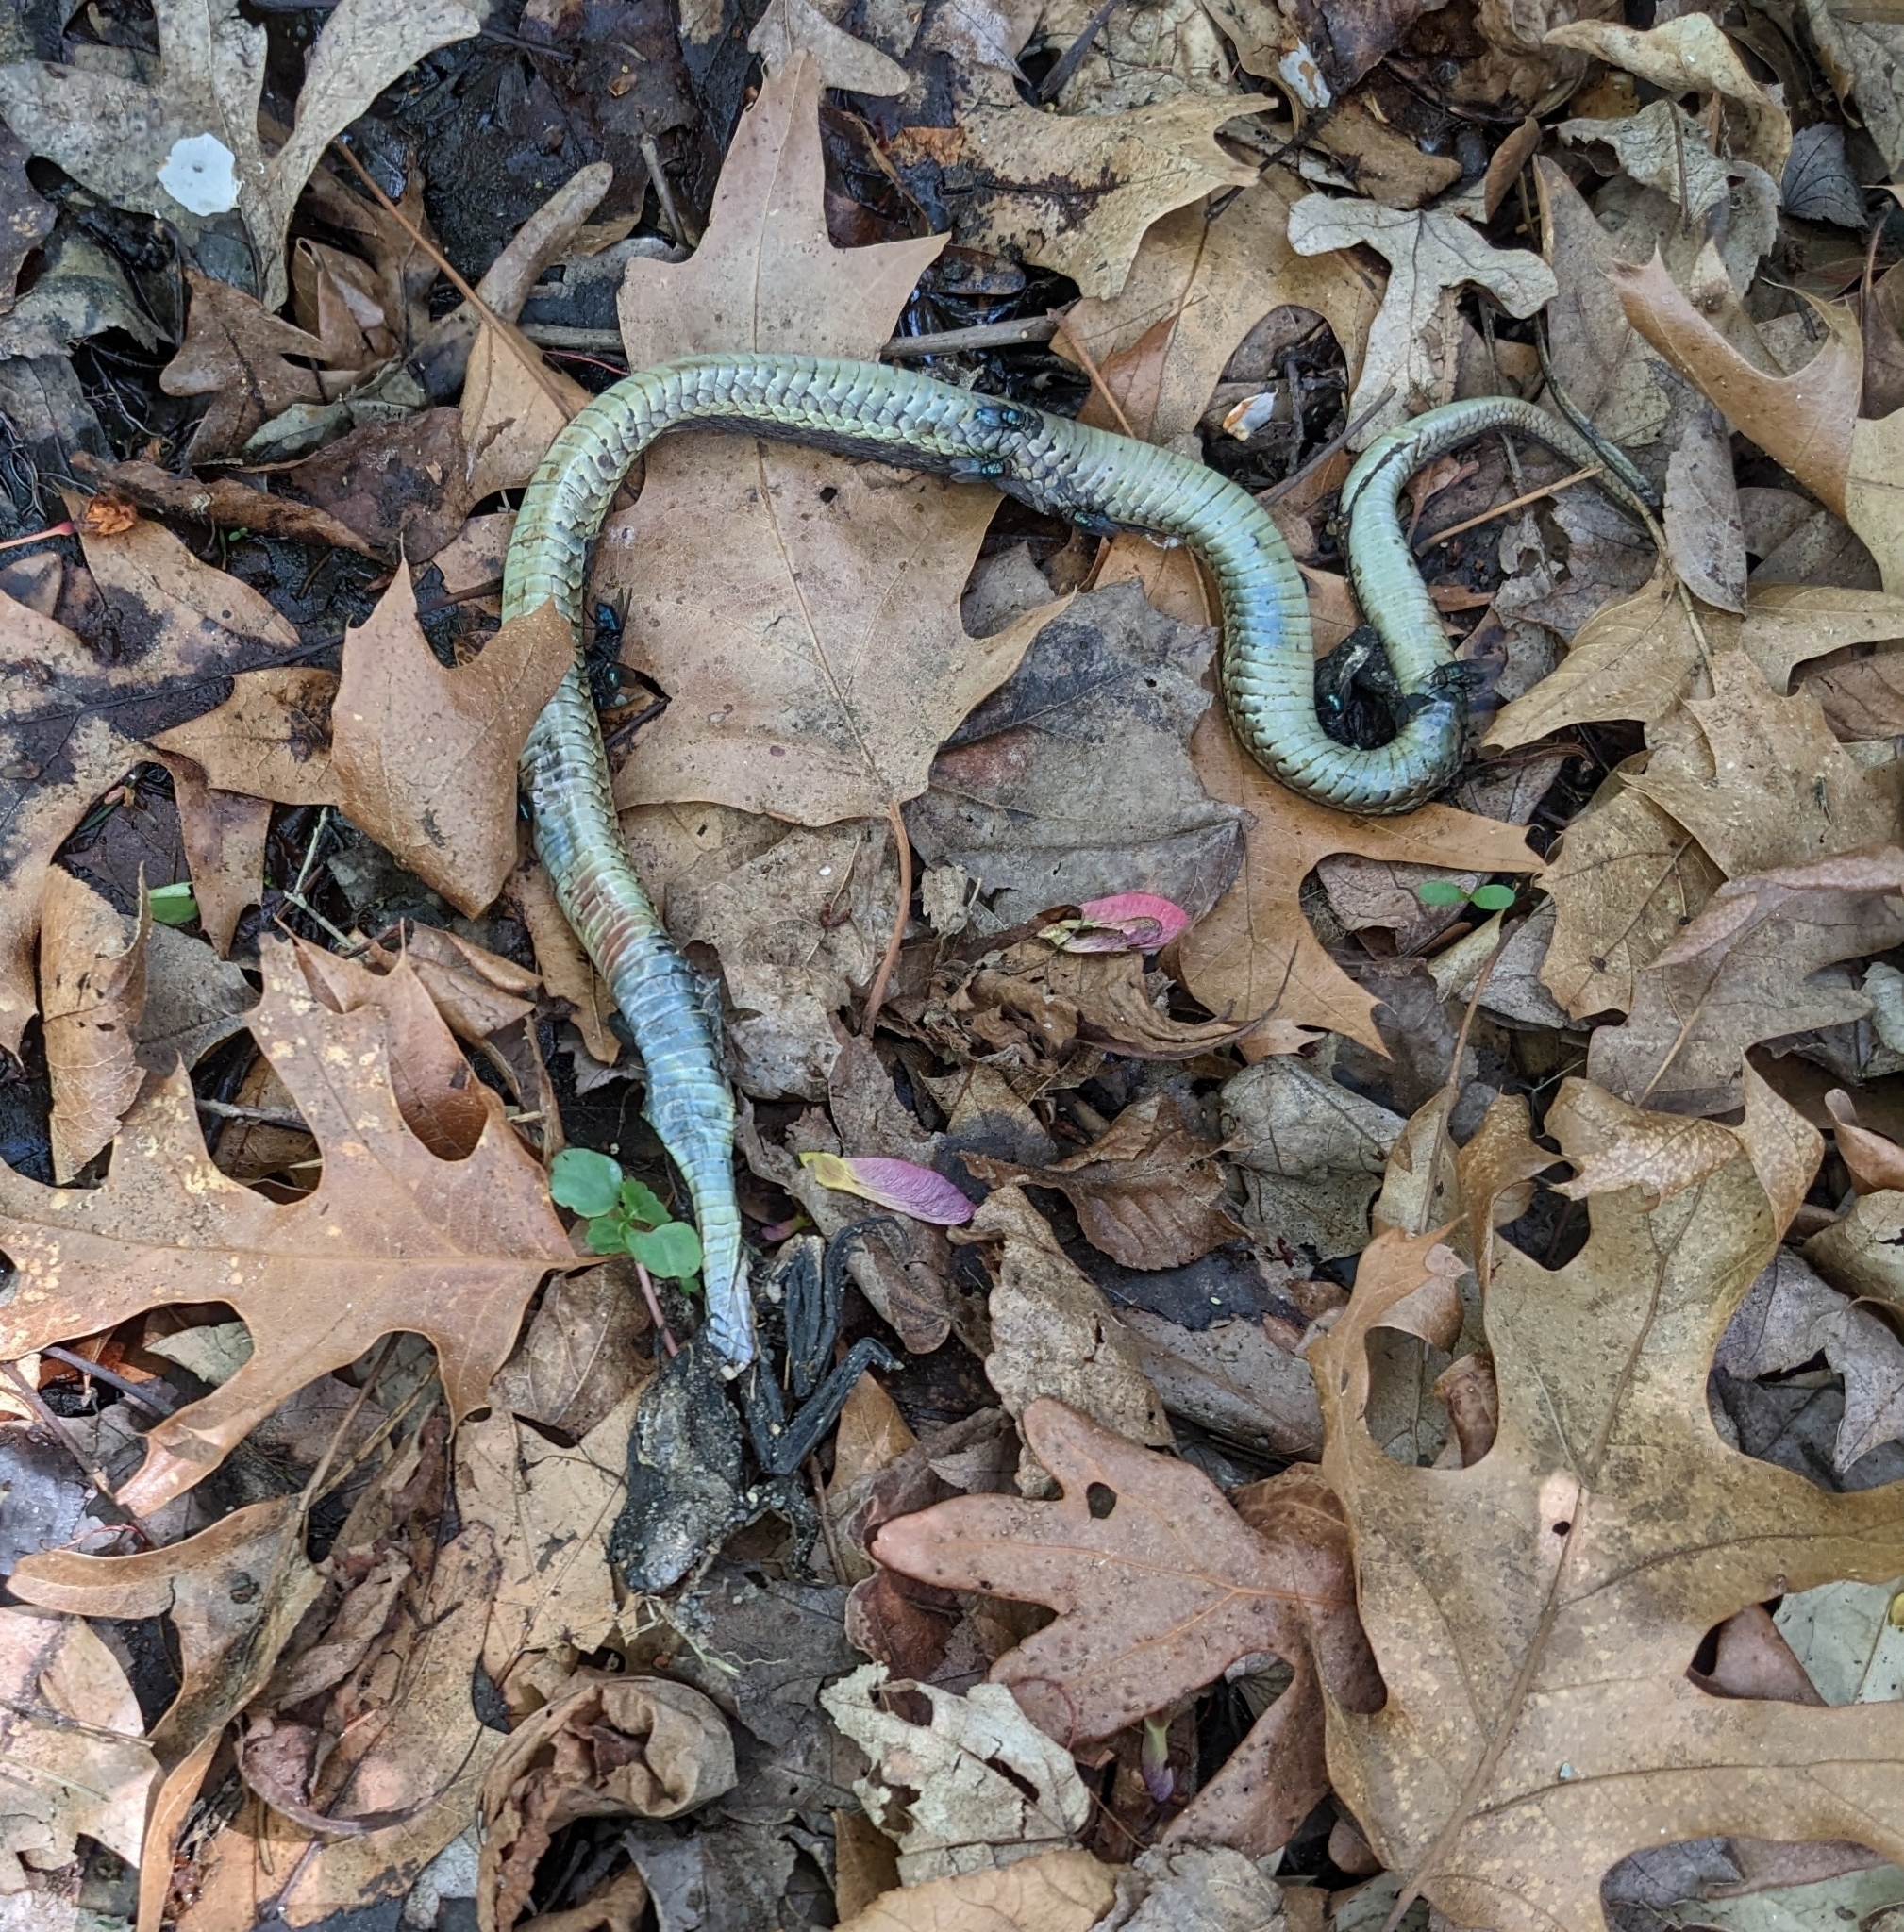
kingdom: Animalia
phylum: Chordata
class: Squamata
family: Colubridae
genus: Thamnophis
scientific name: Thamnophis sirtalis
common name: Common garter snake
